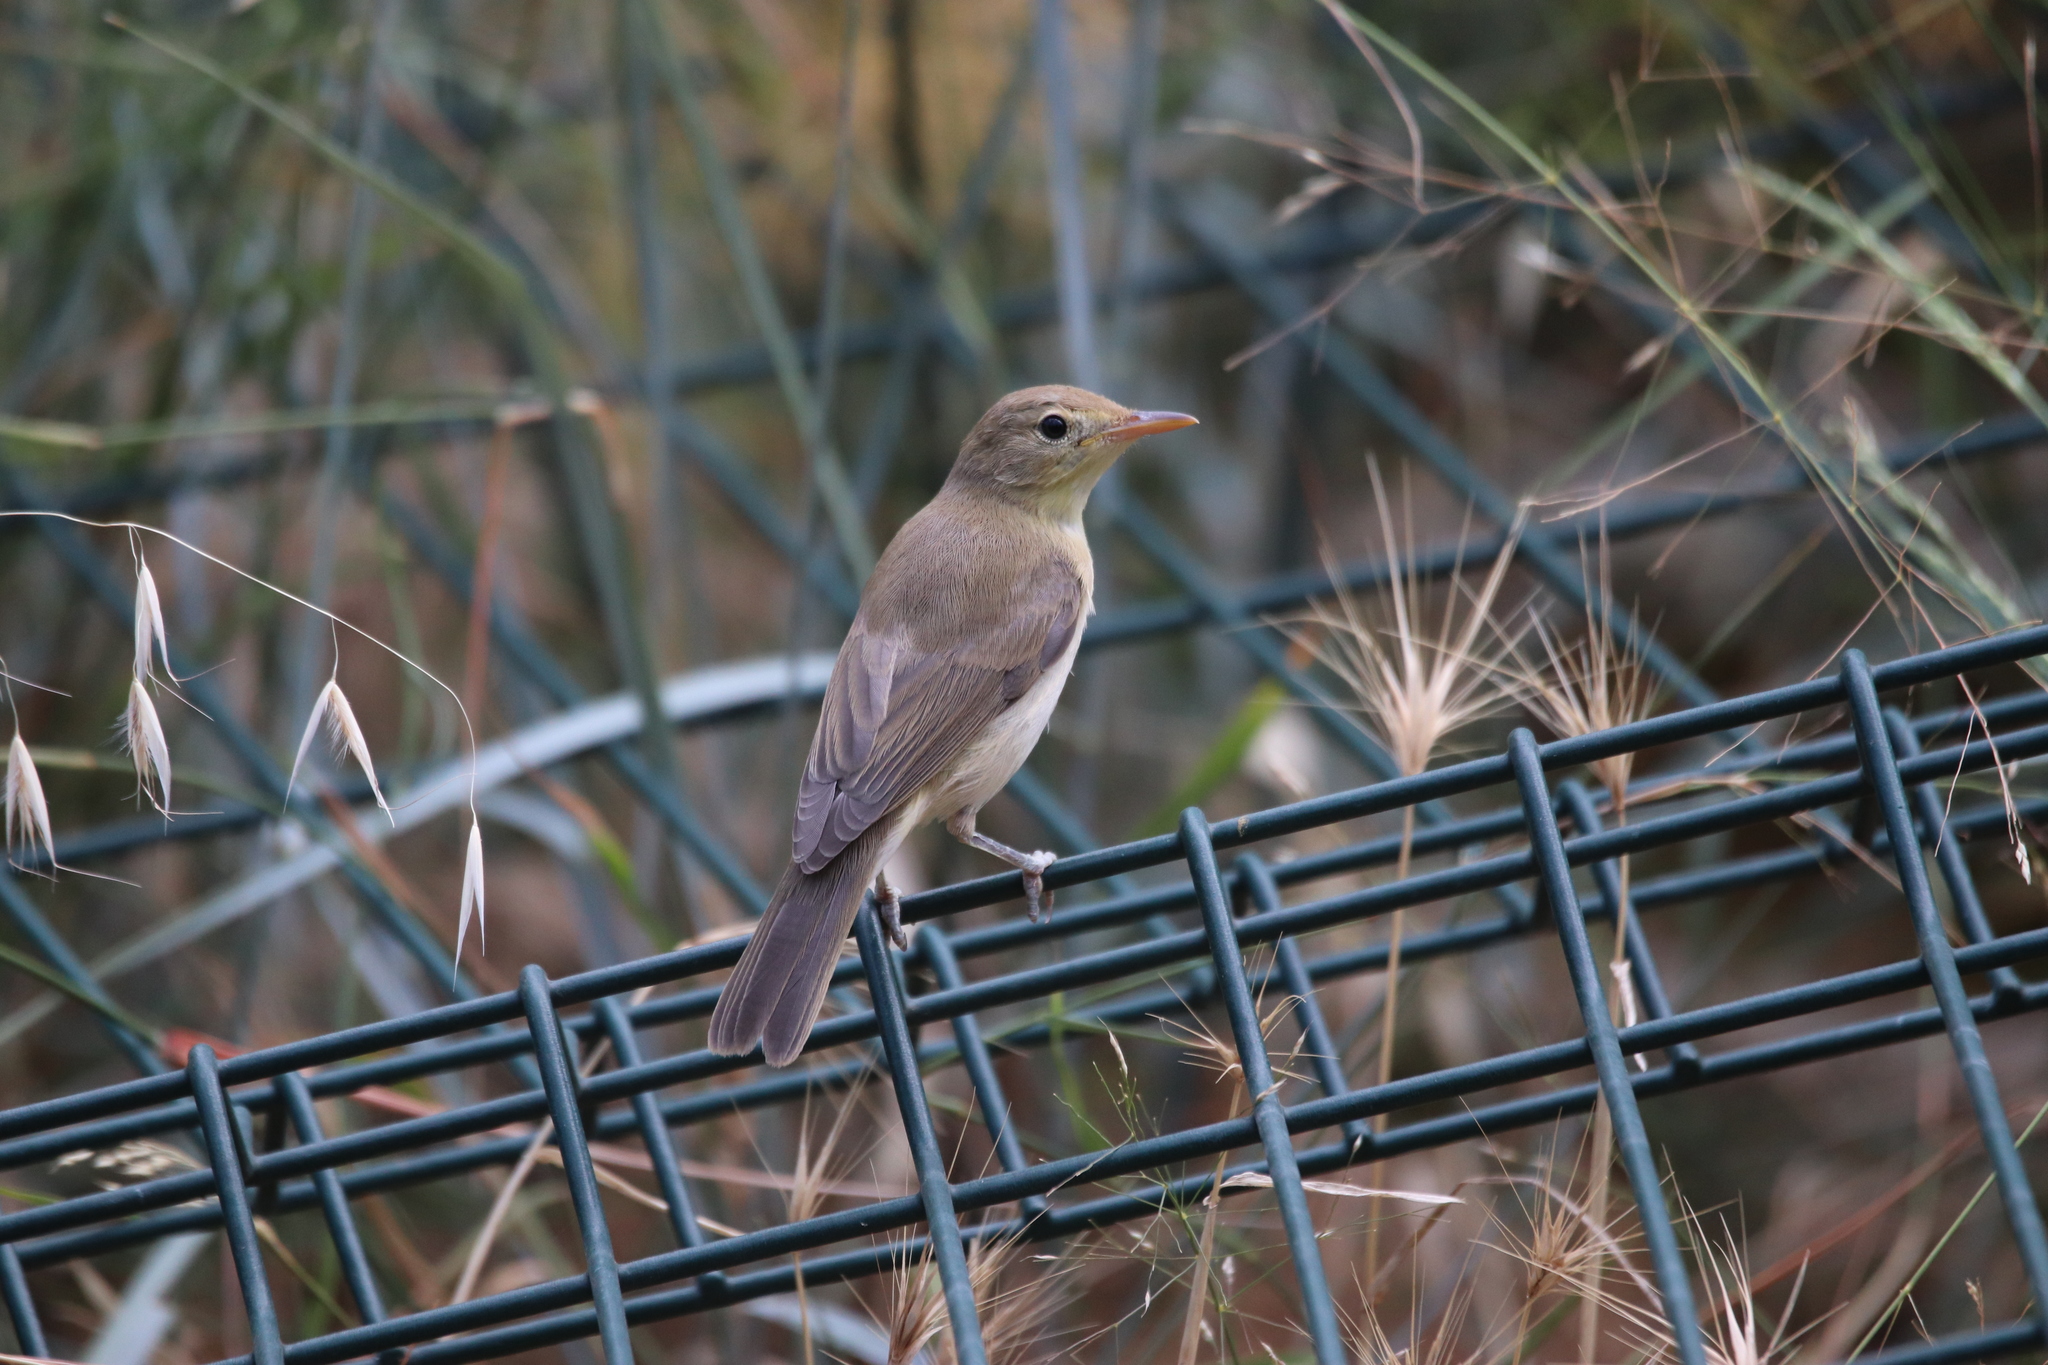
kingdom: Animalia
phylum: Chordata
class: Aves
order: Passeriformes
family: Acrocephalidae
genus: Hippolais
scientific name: Hippolais polyglotta
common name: Melodious warbler
